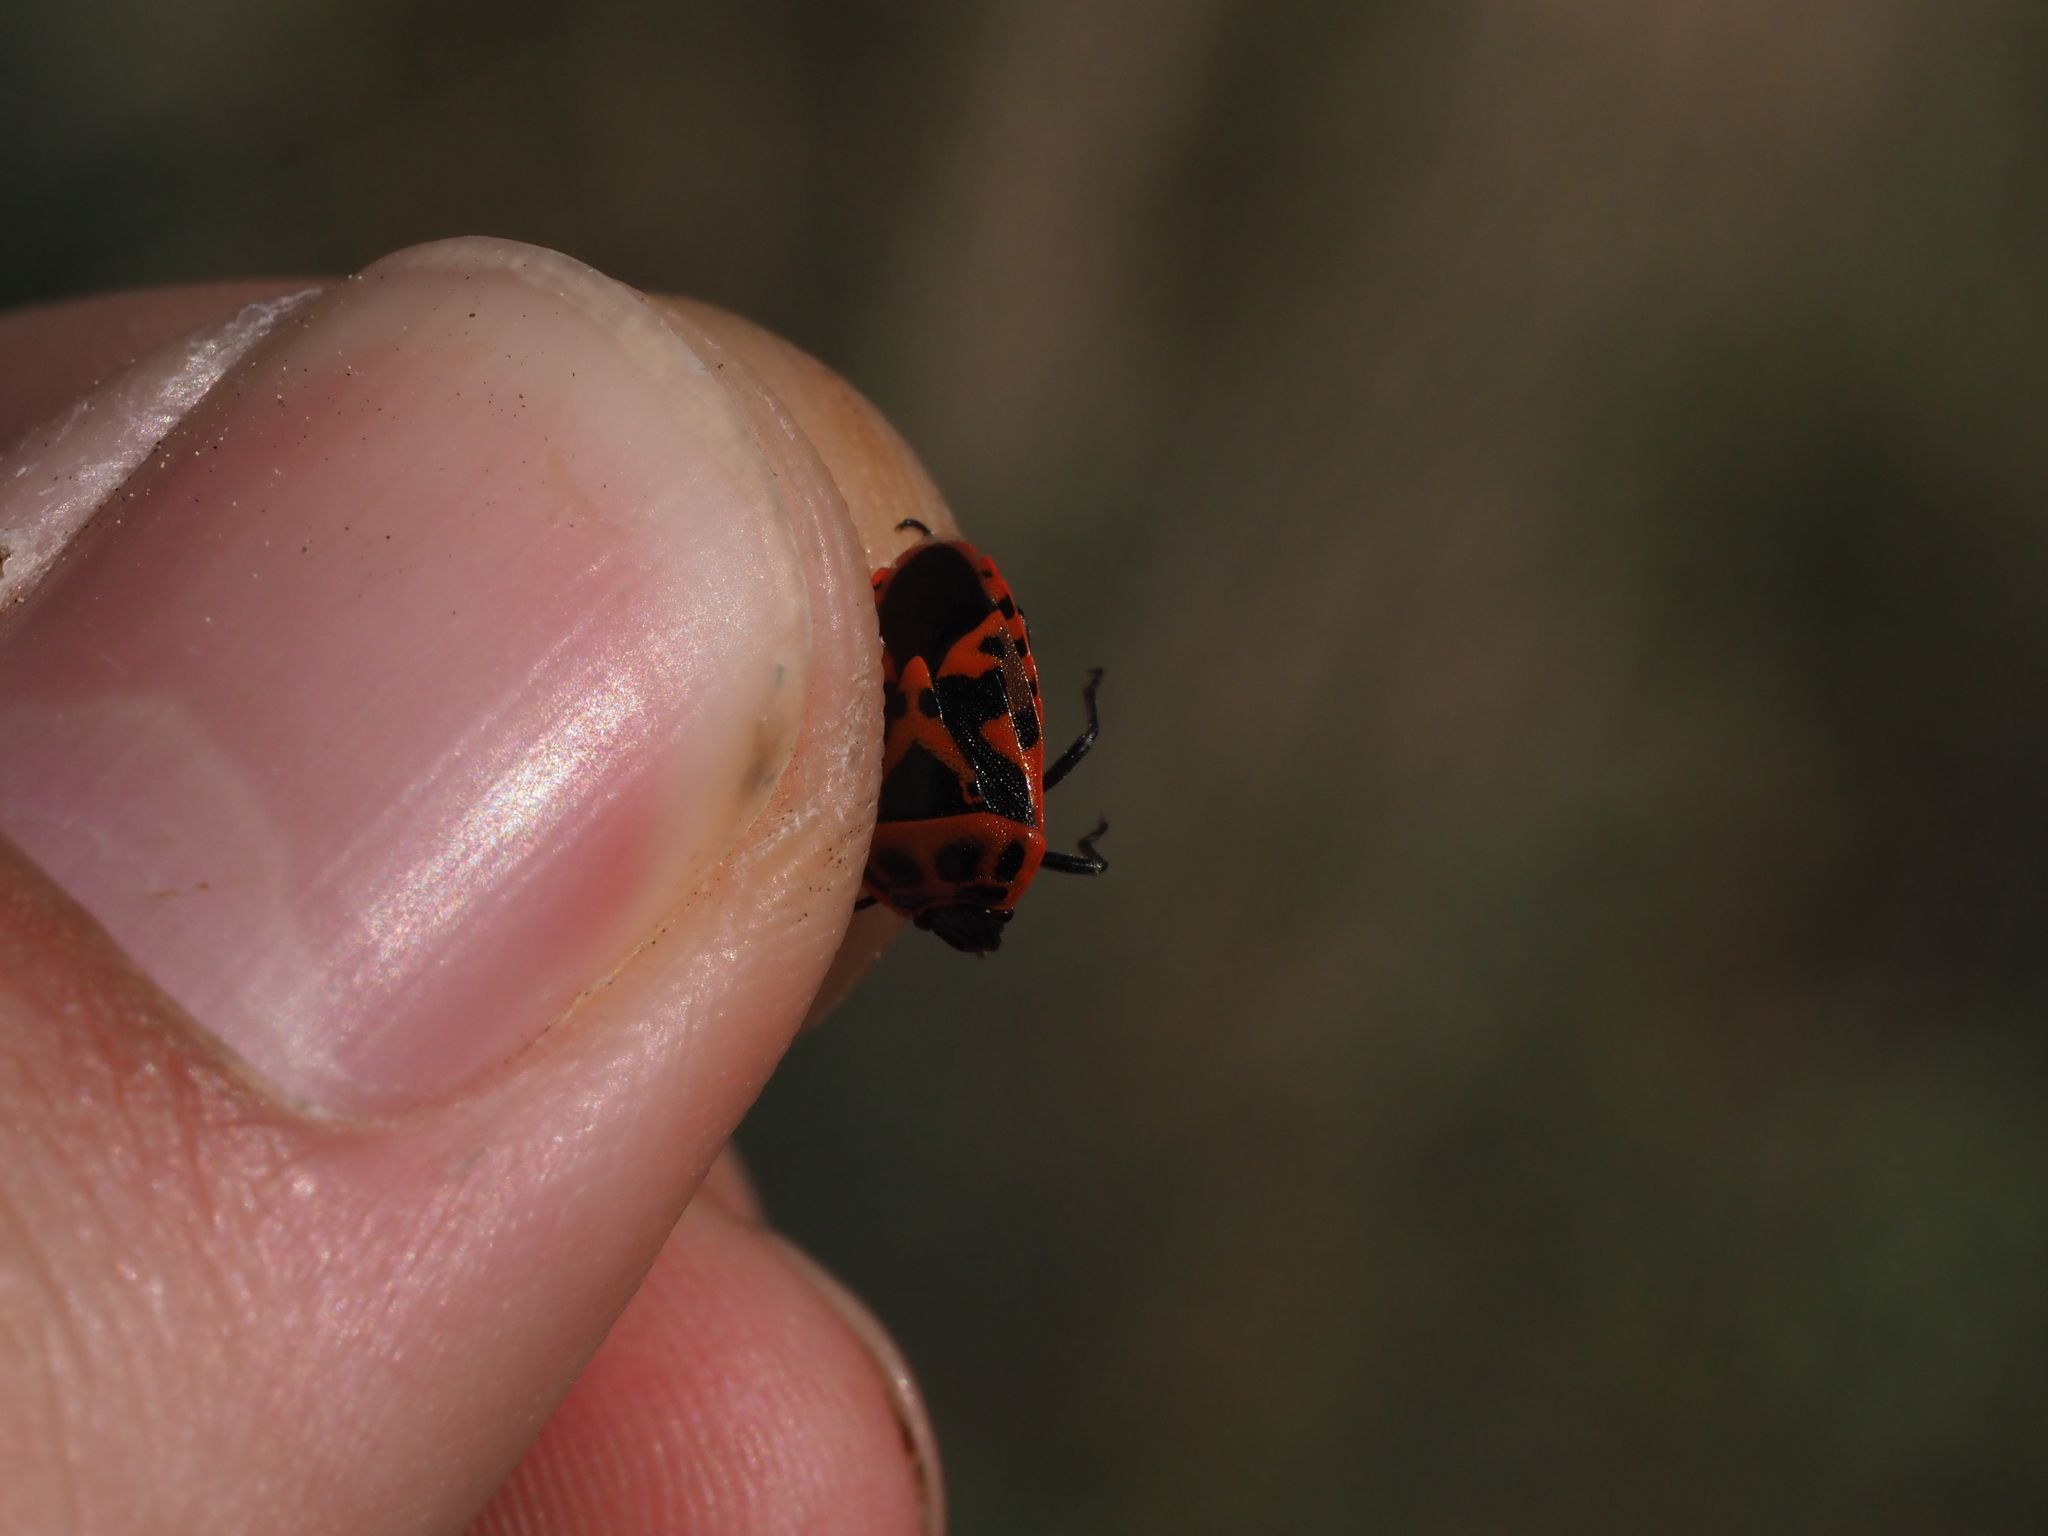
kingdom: Animalia
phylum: Arthropoda
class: Insecta
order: Hemiptera
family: Pentatomidae
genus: Eurydema
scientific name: Eurydema ornata
